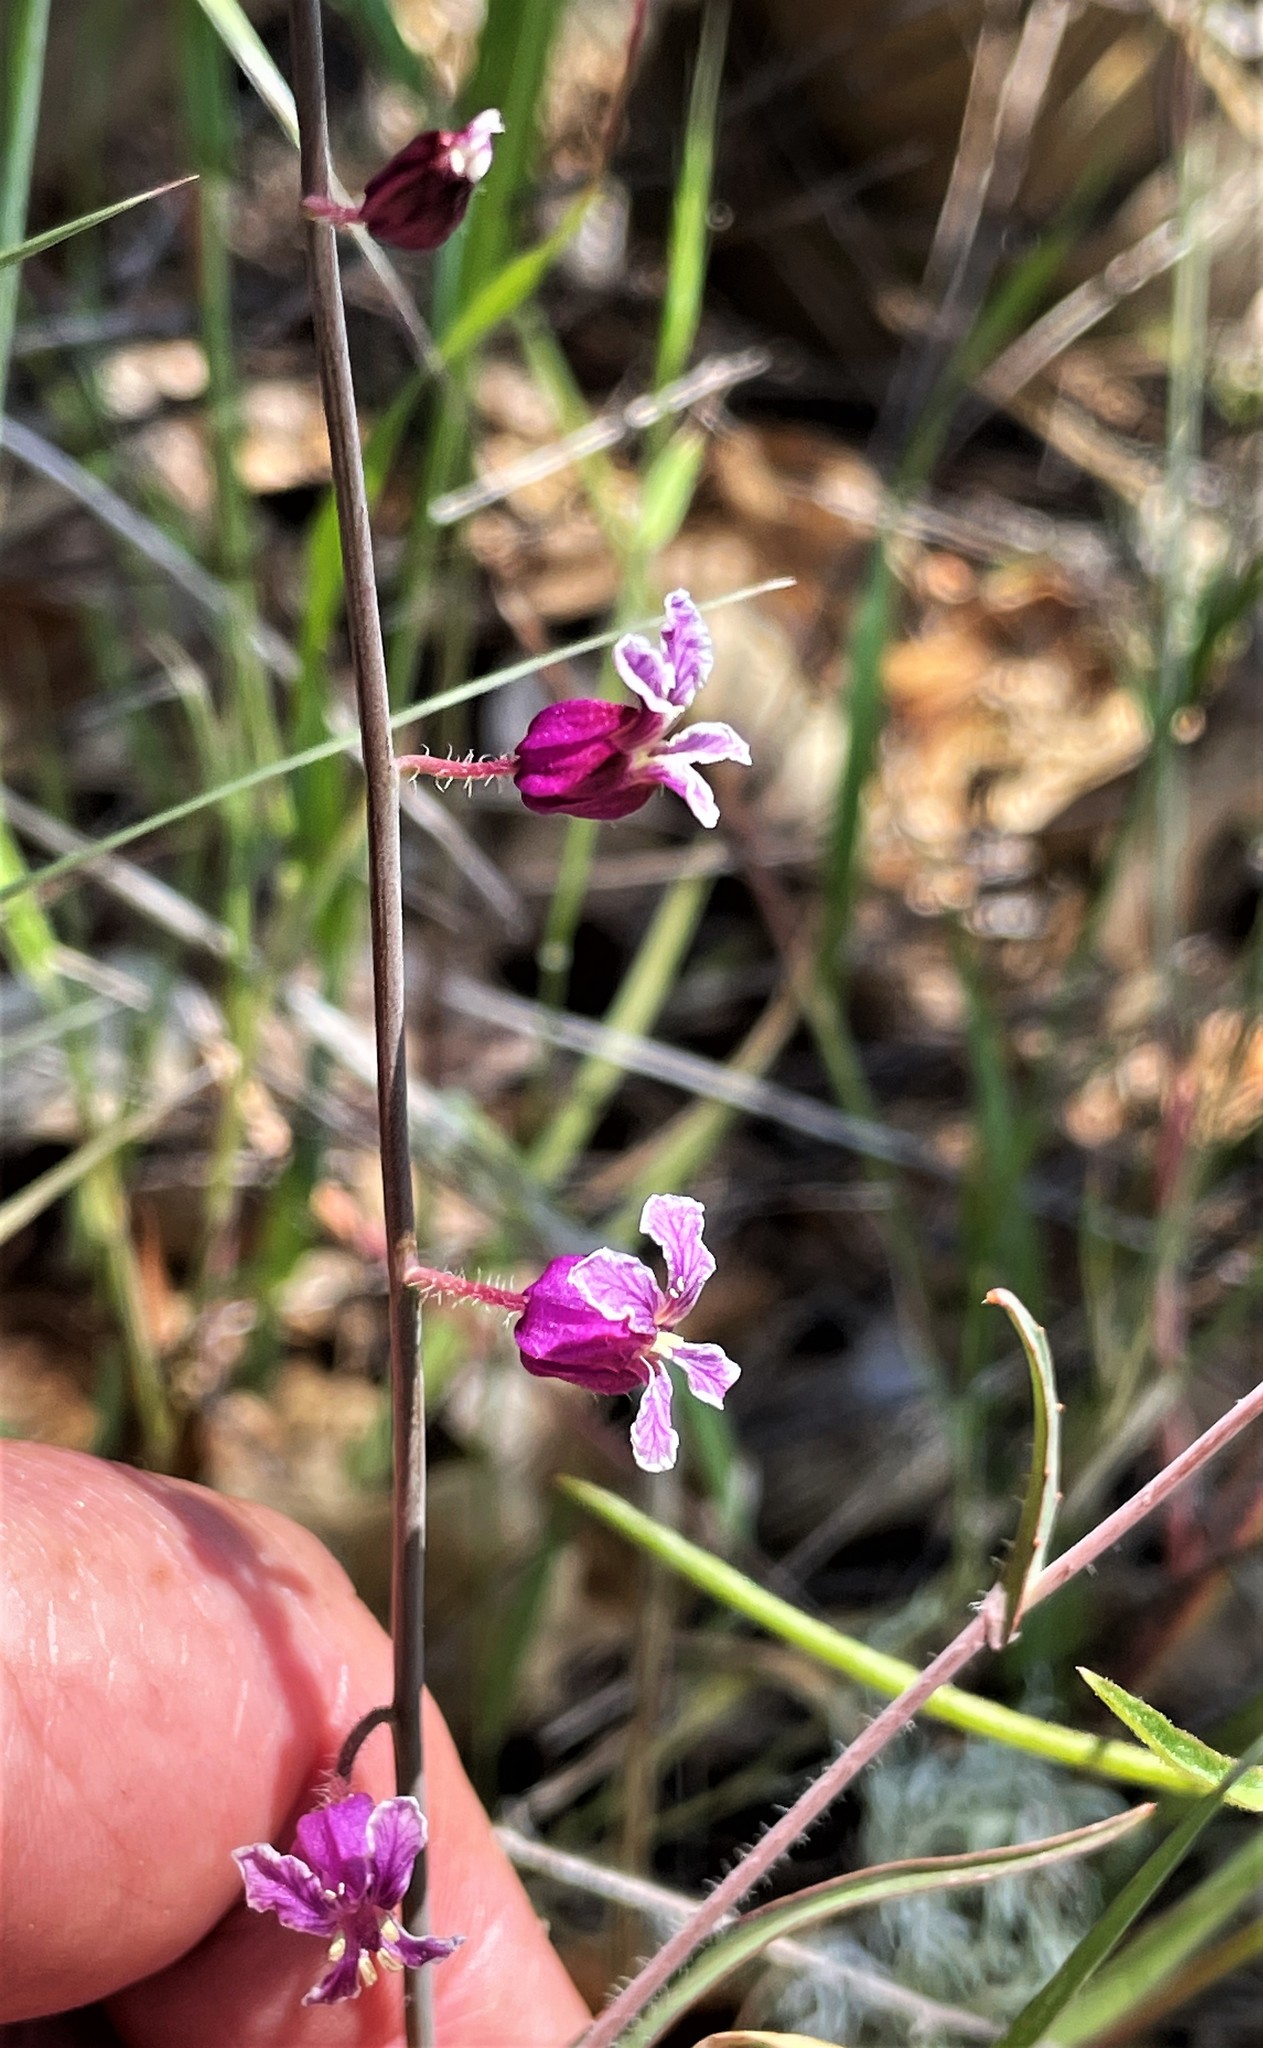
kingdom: Plantae
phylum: Tracheophyta
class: Magnoliopsida
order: Brassicales
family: Brassicaceae
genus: Streptanthus
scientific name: Streptanthus glandulosus
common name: Jewel-flower
